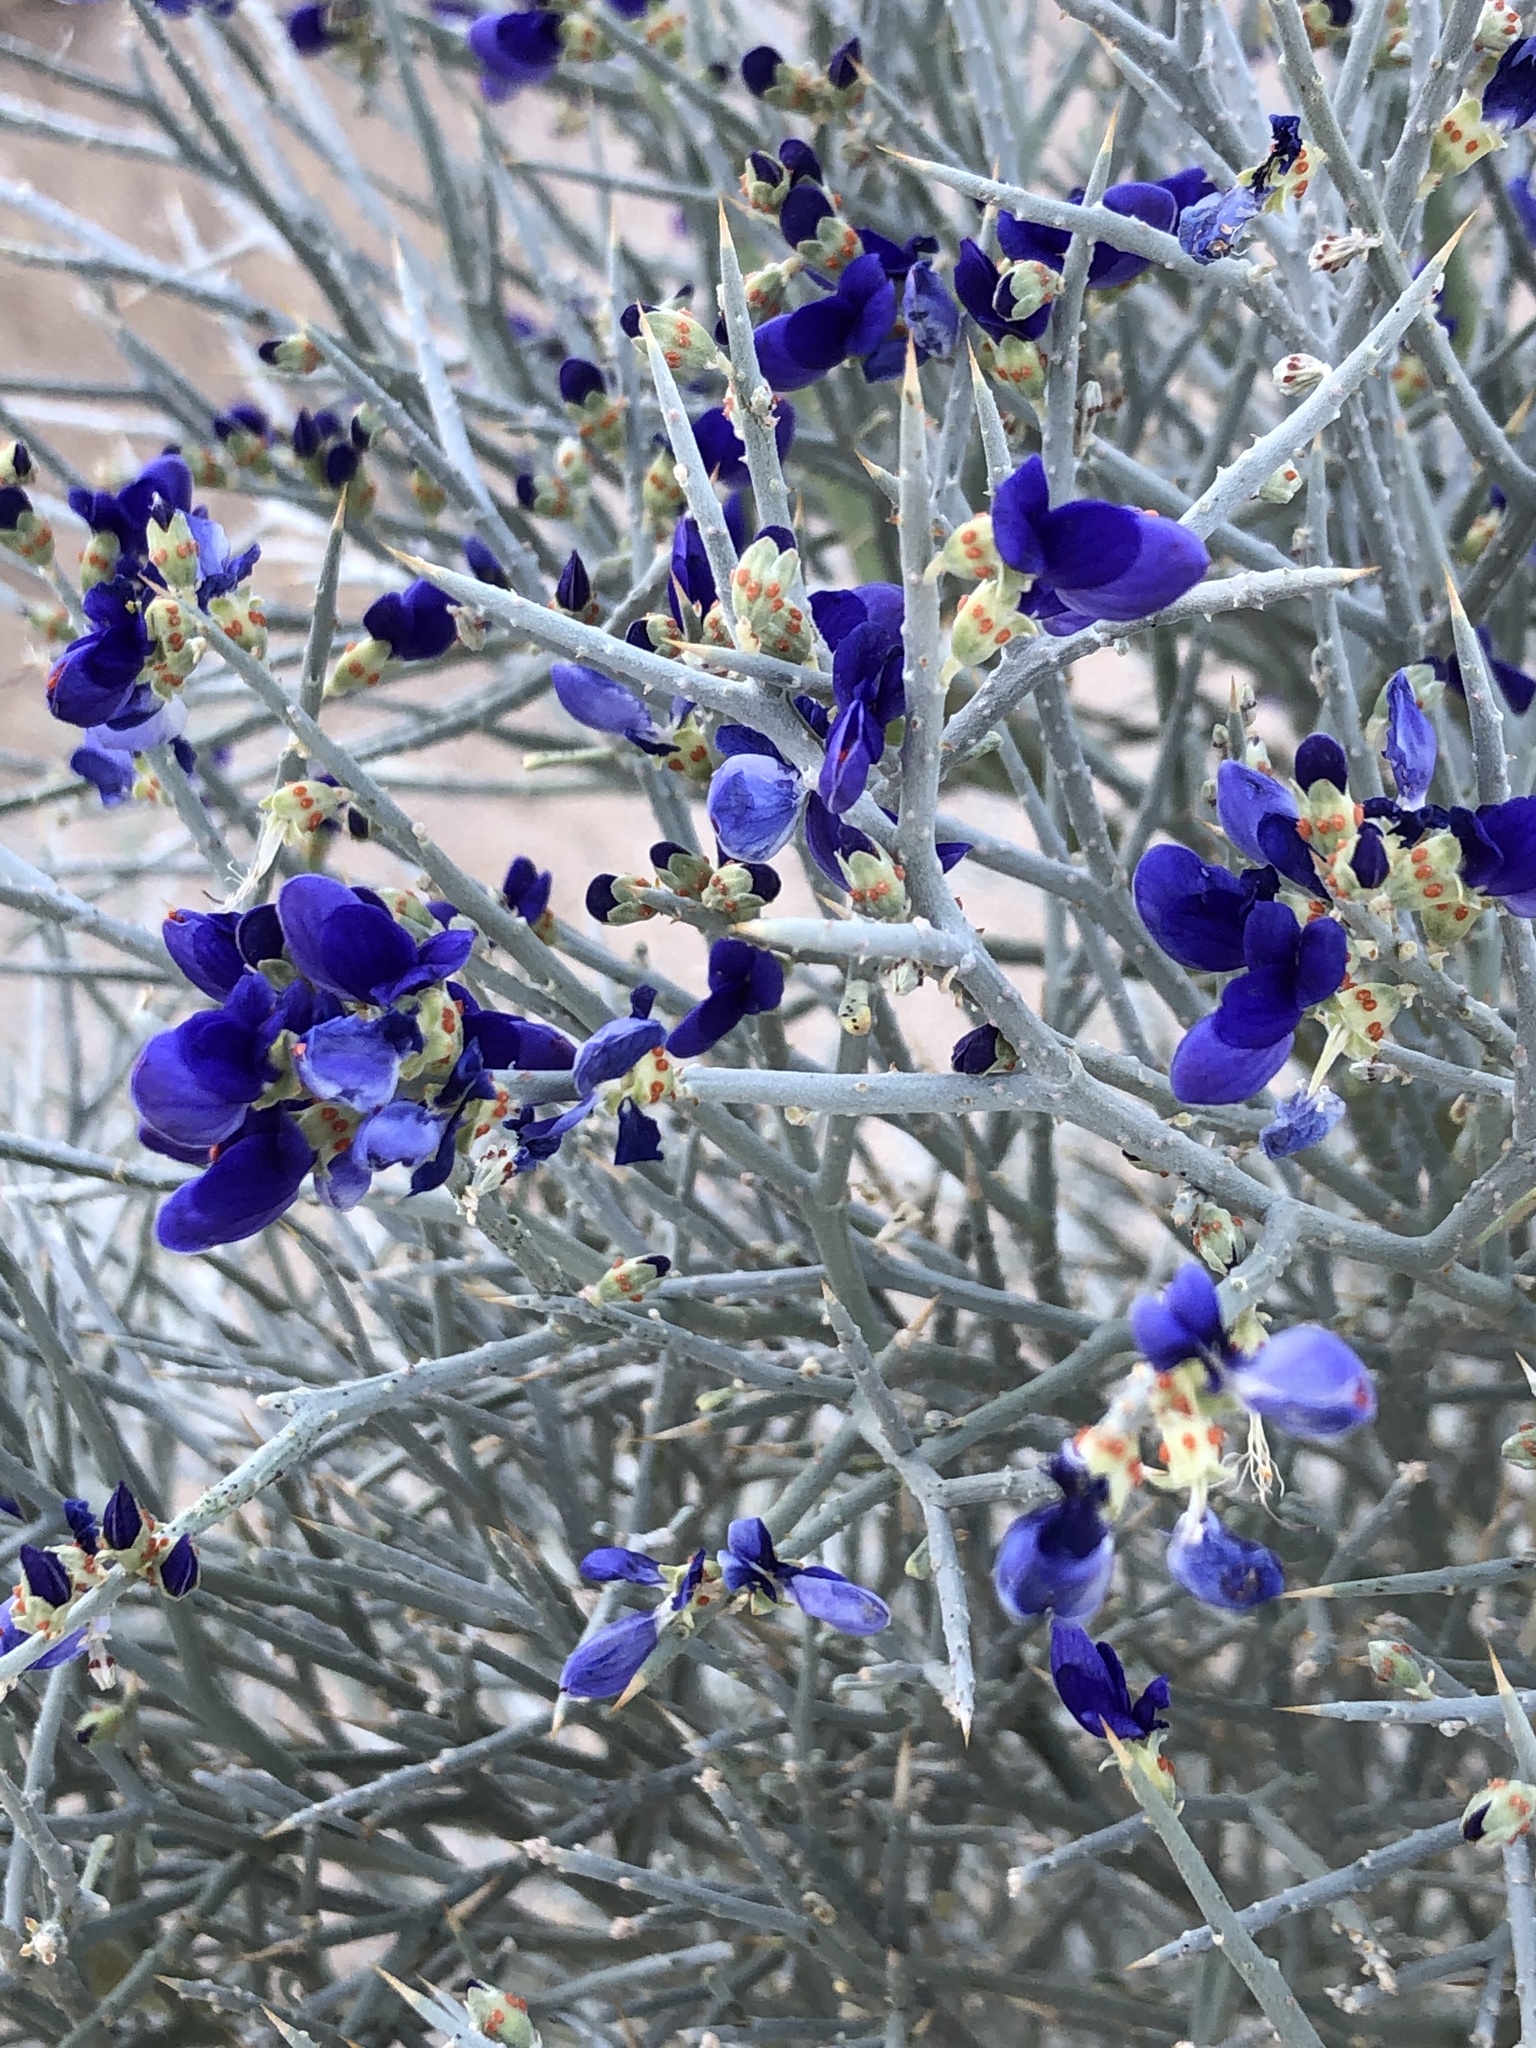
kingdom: Plantae
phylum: Tracheophyta
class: Magnoliopsida
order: Fabales
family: Fabaceae
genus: Psorothamnus
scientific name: Psorothamnus spinosus
